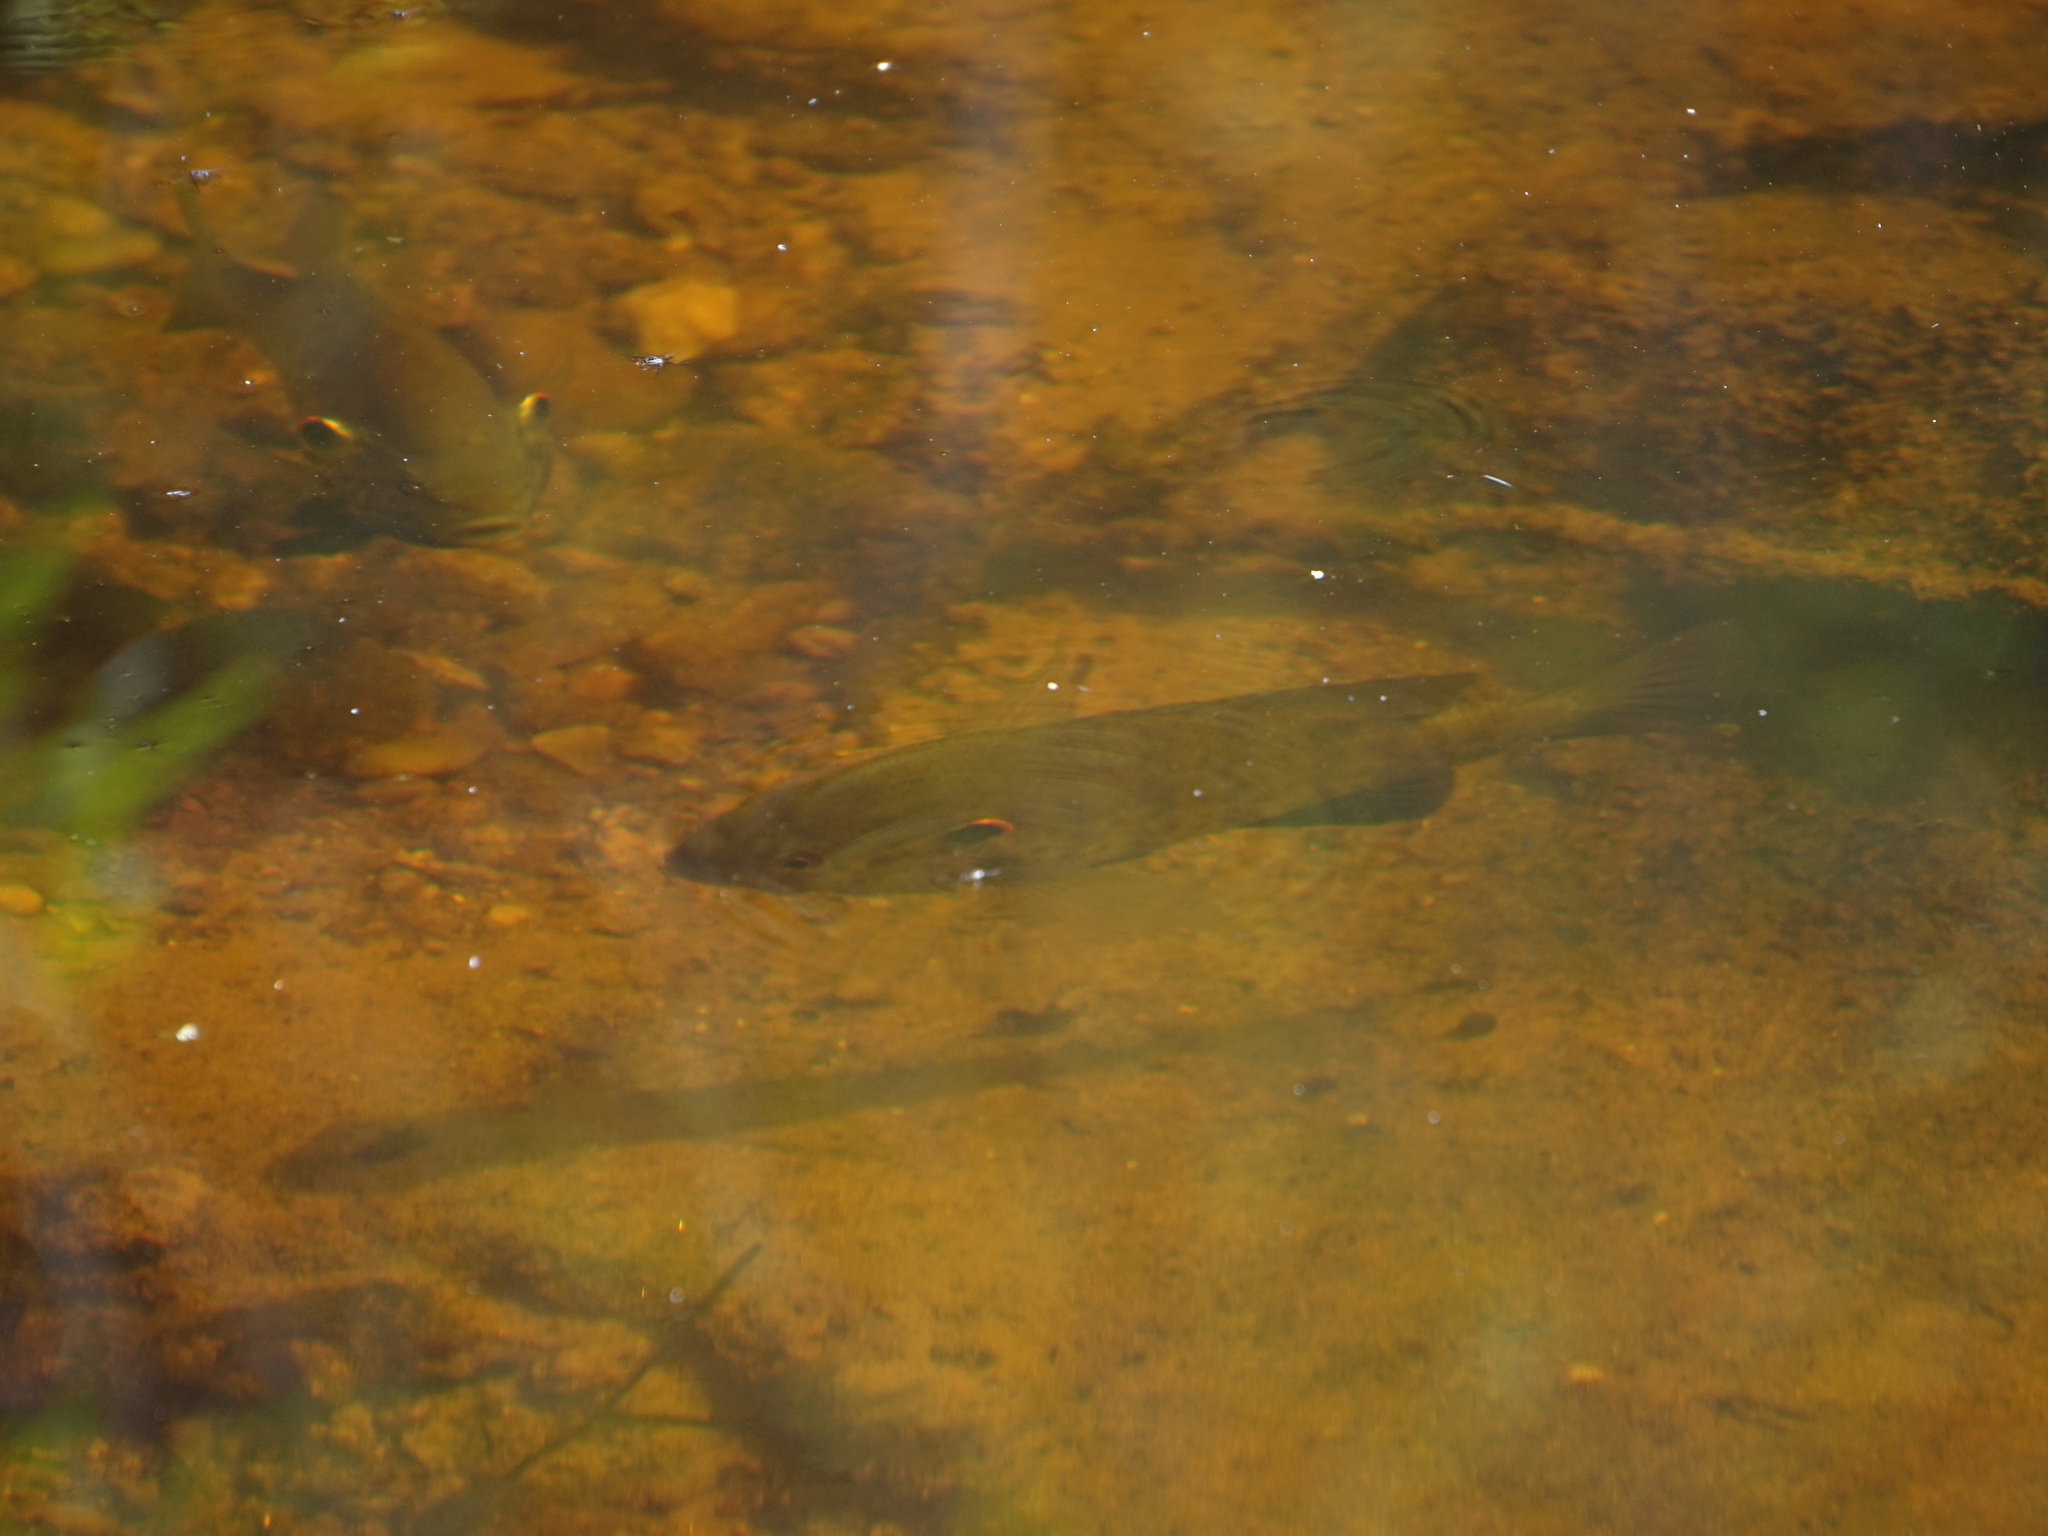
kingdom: Animalia
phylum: Chordata
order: Perciformes
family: Centrarchidae
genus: Lepomis
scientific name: Lepomis microlophus
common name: Redear sunfish
